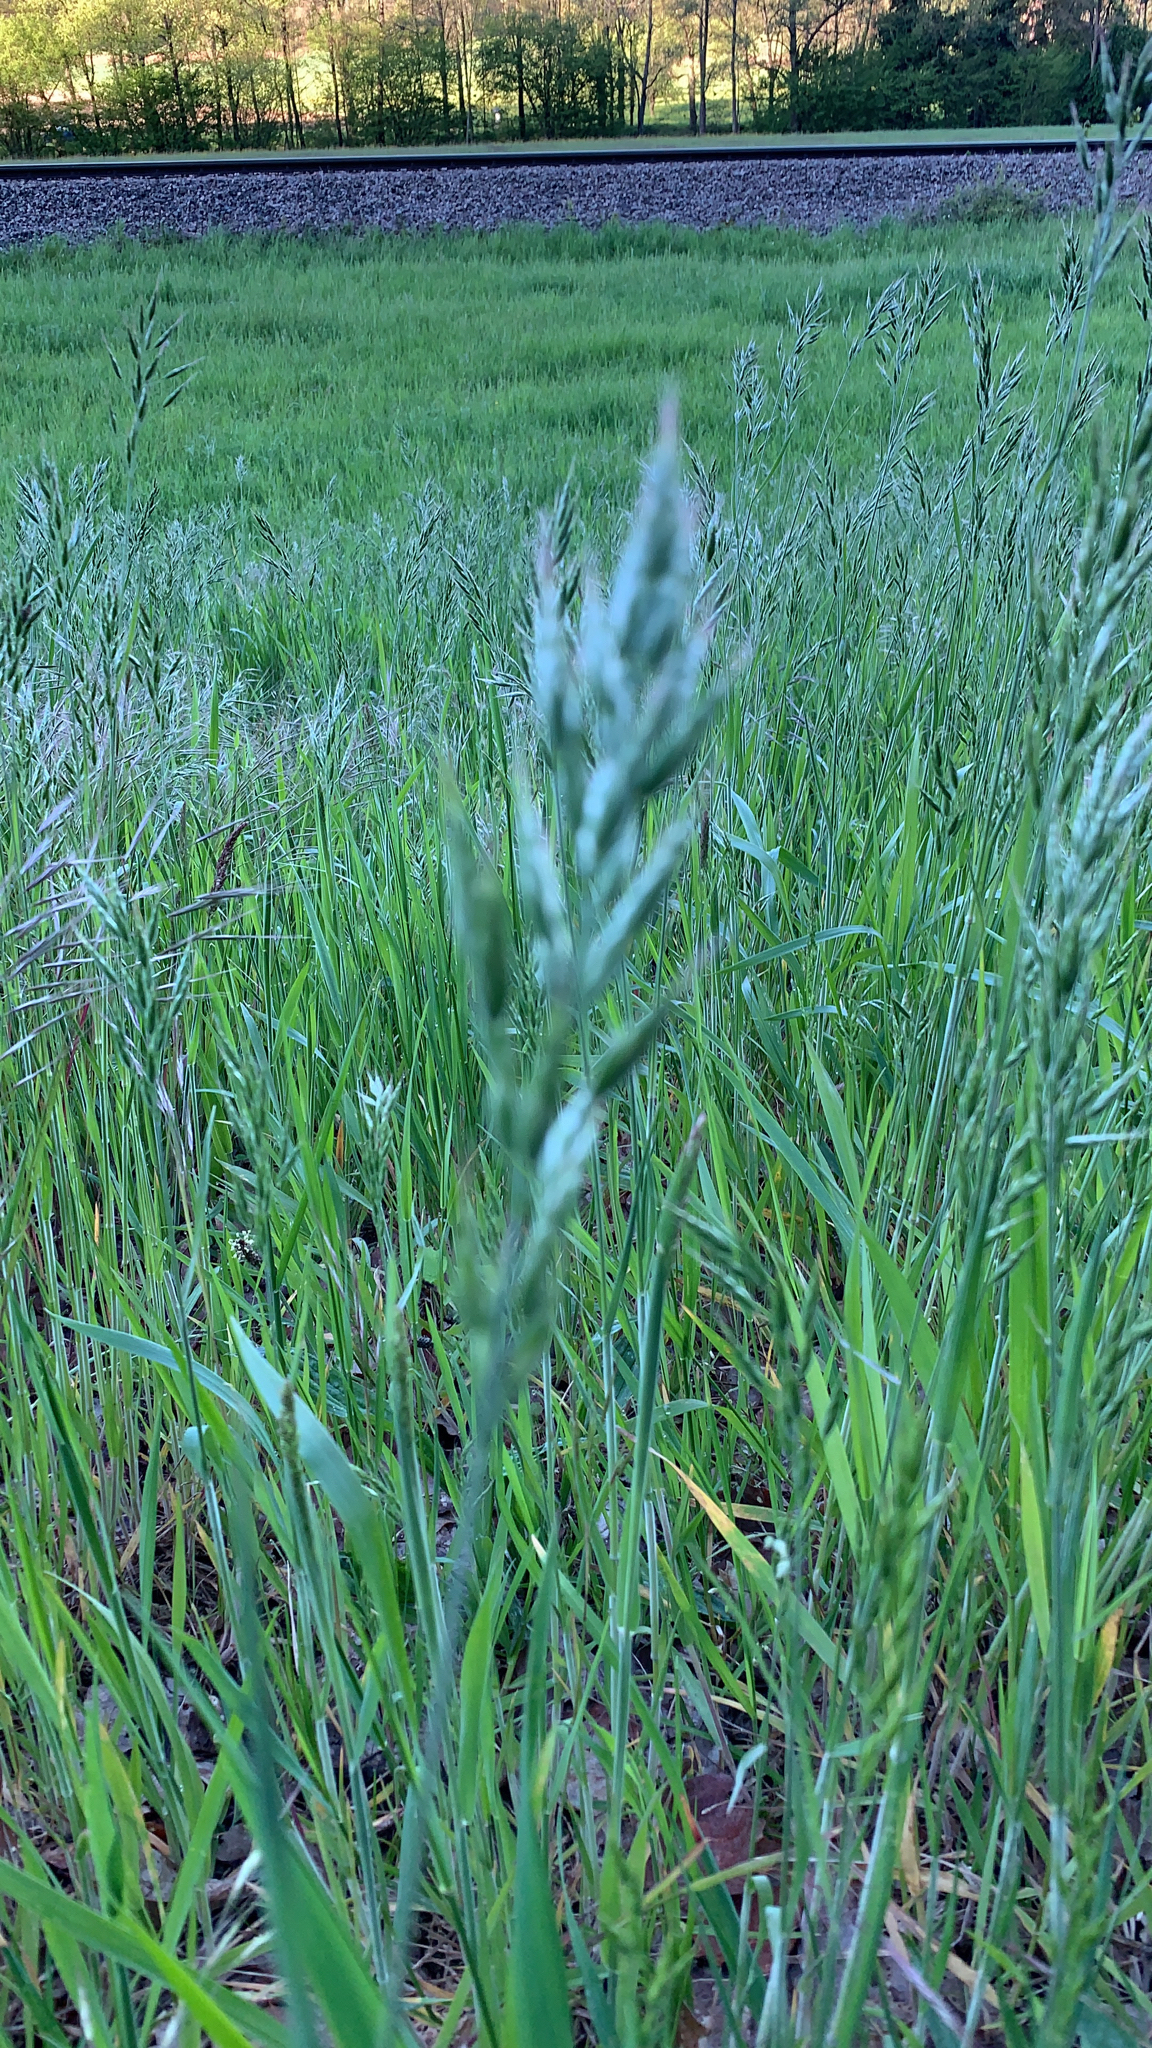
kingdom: Plantae
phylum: Tracheophyta
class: Liliopsida
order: Poales
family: Poaceae
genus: Bromus
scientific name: Bromus hordeaceus
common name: Soft brome
